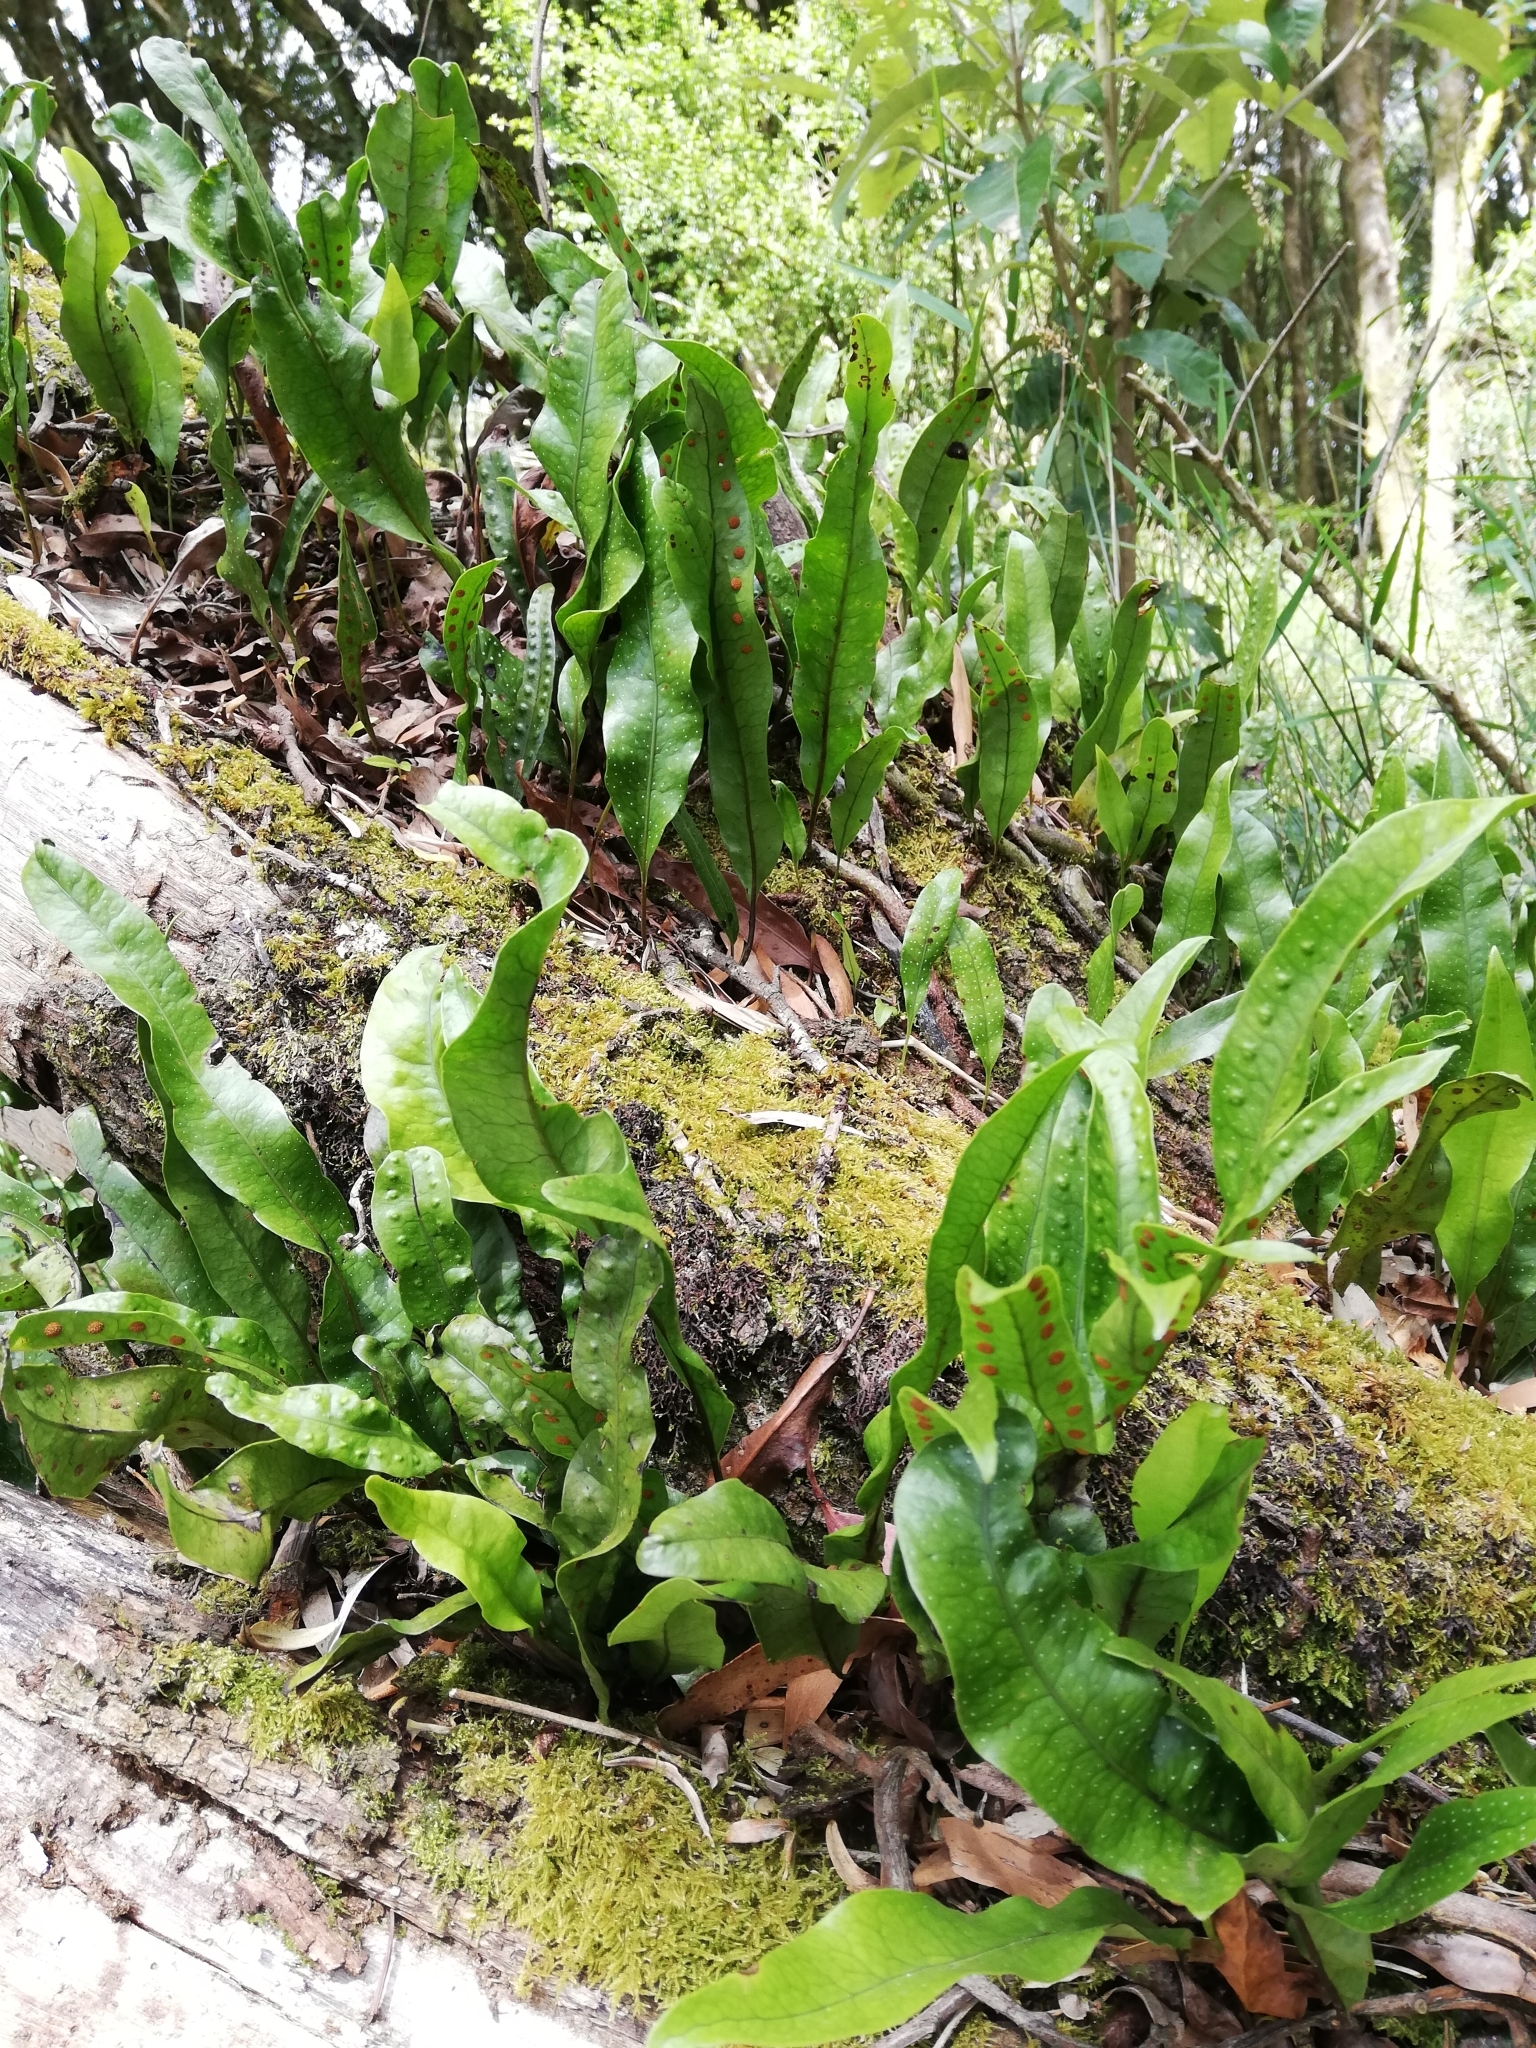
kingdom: Plantae
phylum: Tracheophyta
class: Polypodiopsida
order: Polypodiales
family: Polypodiaceae
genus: Lecanopteris
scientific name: Lecanopteris pustulata
